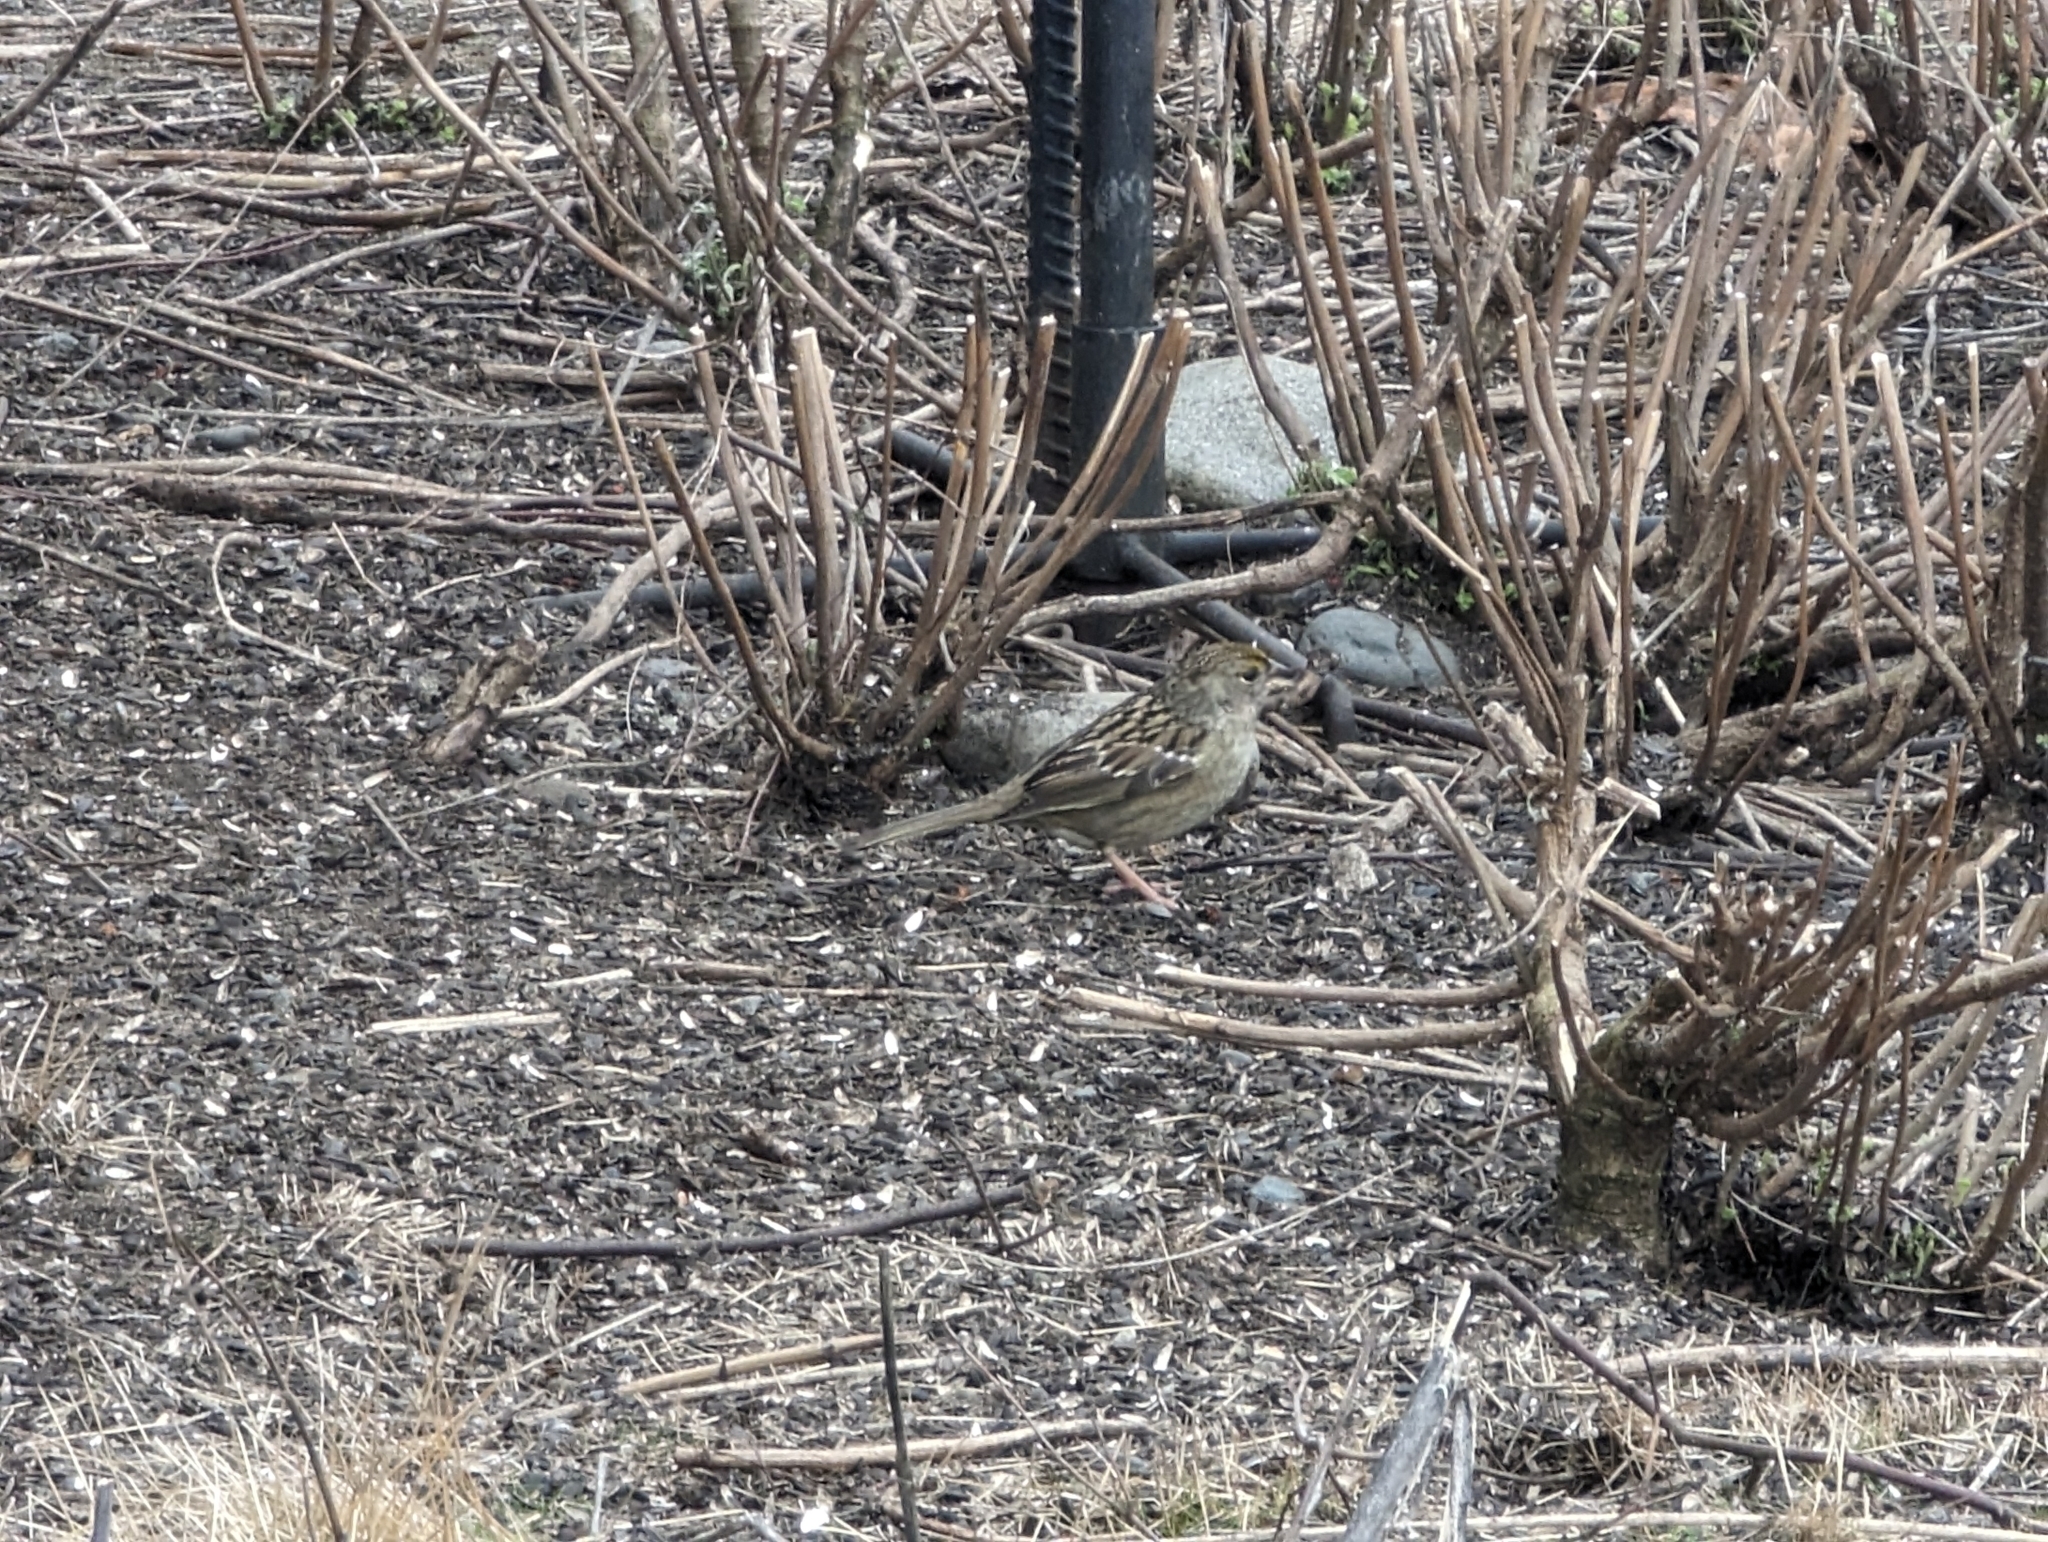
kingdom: Animalia
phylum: Chordata
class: Aves
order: Passeriformes
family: Passerellidae
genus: Zonotrichia
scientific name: Zonotrichia atricapilla
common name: Golden-crowned sparrow
